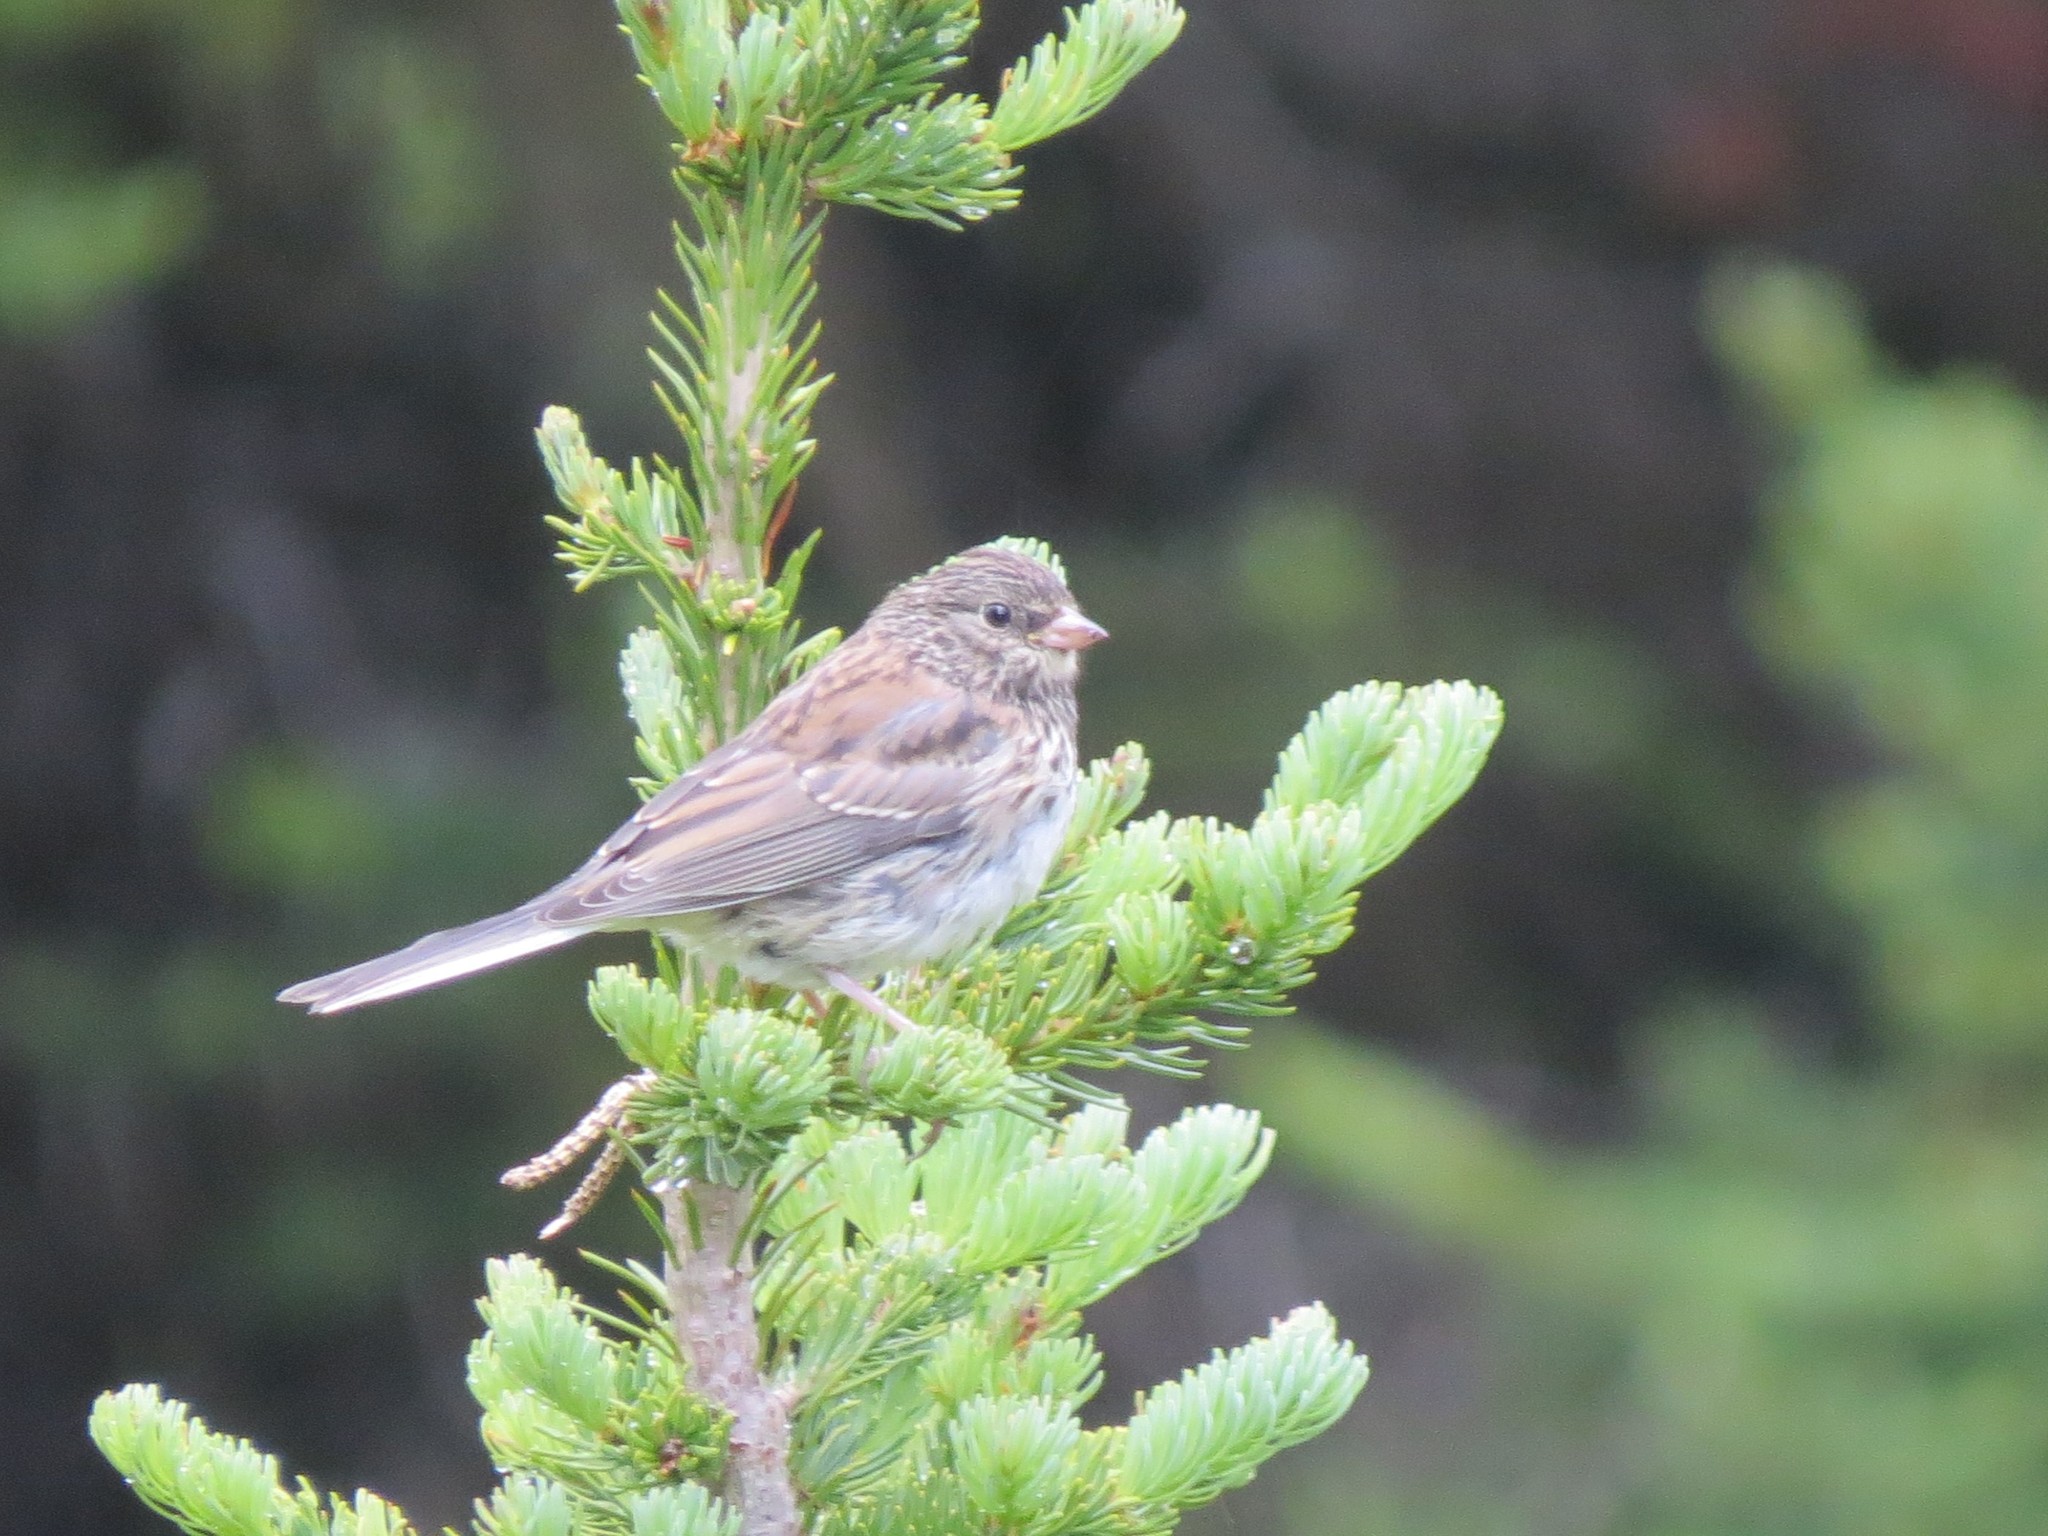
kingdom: Animalia
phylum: Chordata
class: Aves
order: Passeriformes
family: Passerellidae
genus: Junco
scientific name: Junco hyemalis
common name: Dark-eyed junco
